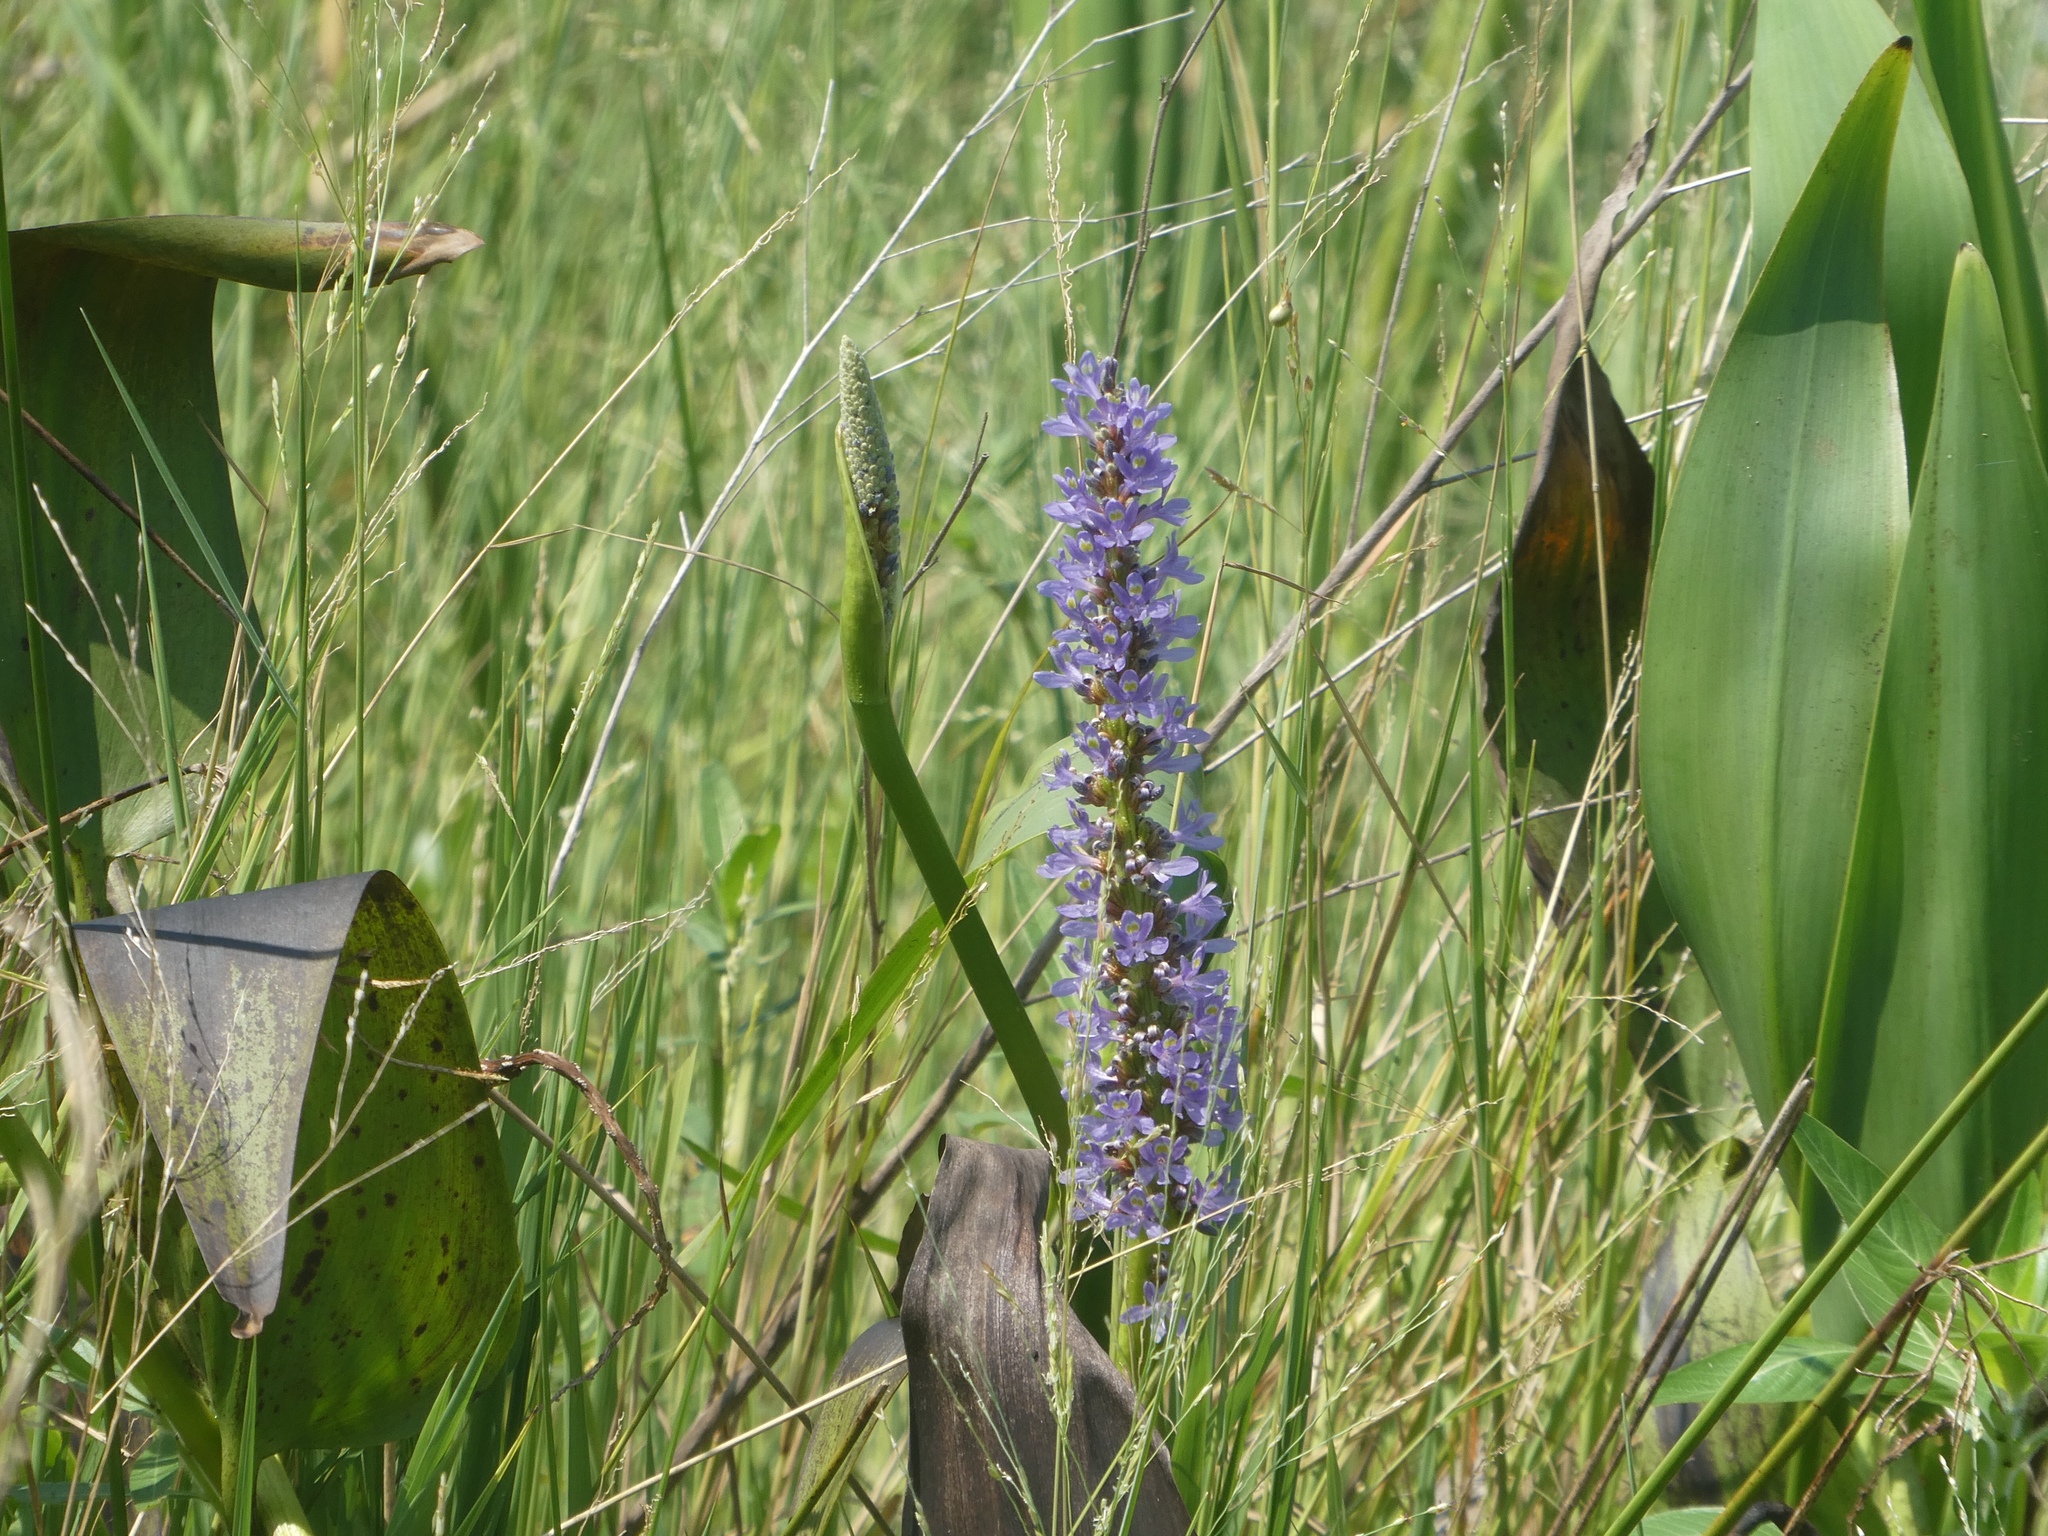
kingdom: Plantae
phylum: Tracheophyta
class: Liliopsida
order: Commelinales
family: Pontederiaceae
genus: Pontederia
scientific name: Pontederia cordata
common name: Pickerelweed
